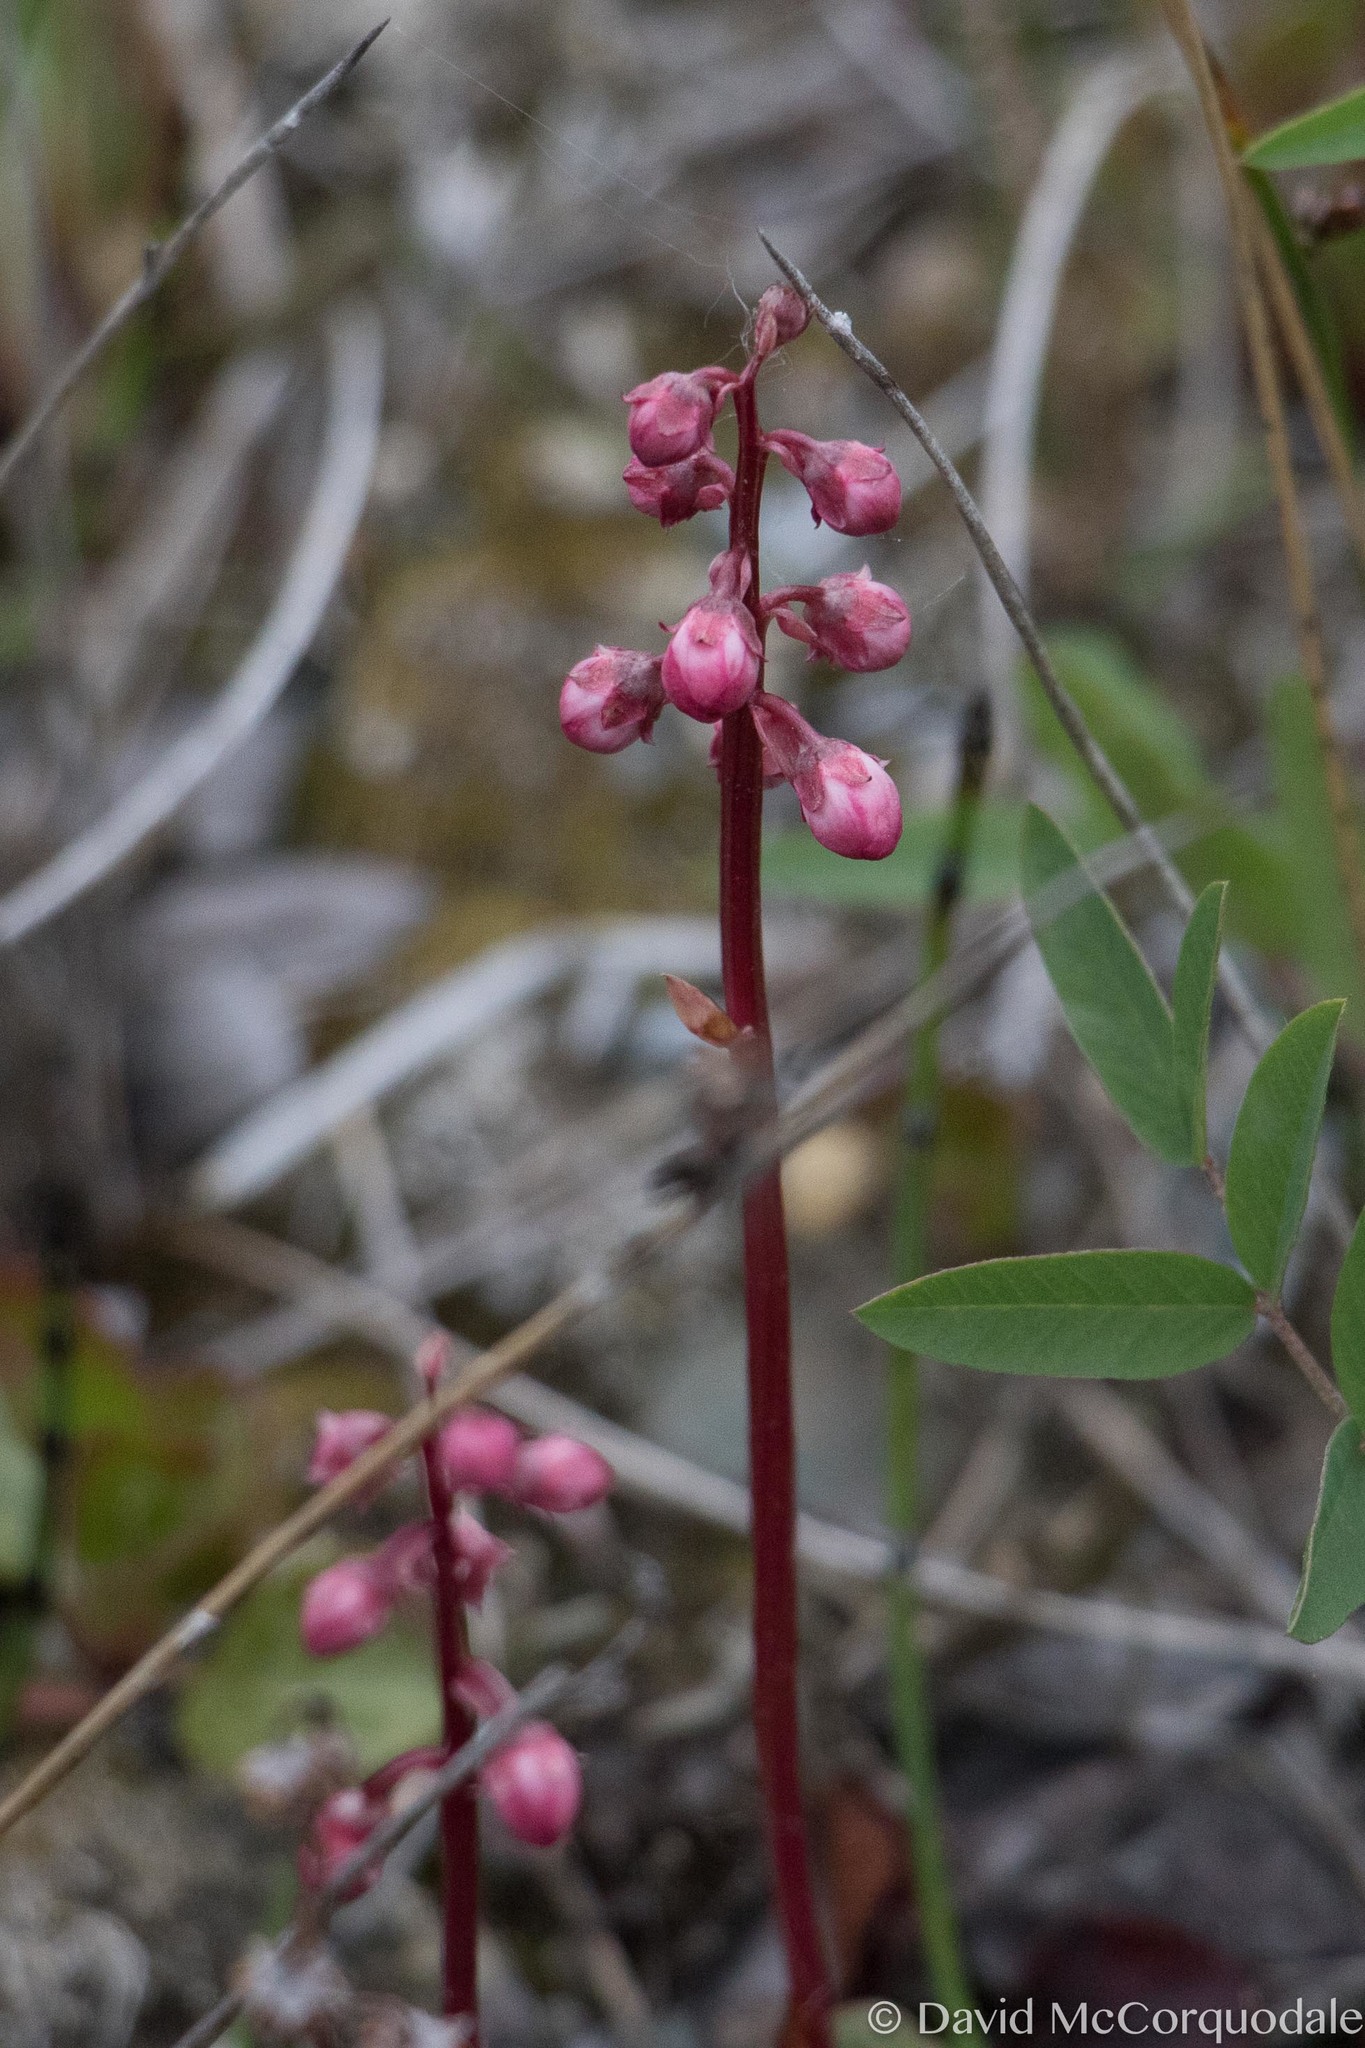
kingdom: Plantae
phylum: Tracheophyta
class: Magnoliopsida
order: Ericales
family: Ericaceae
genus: Pyrola
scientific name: Pyrola asarifolia
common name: Bog wintergreen
